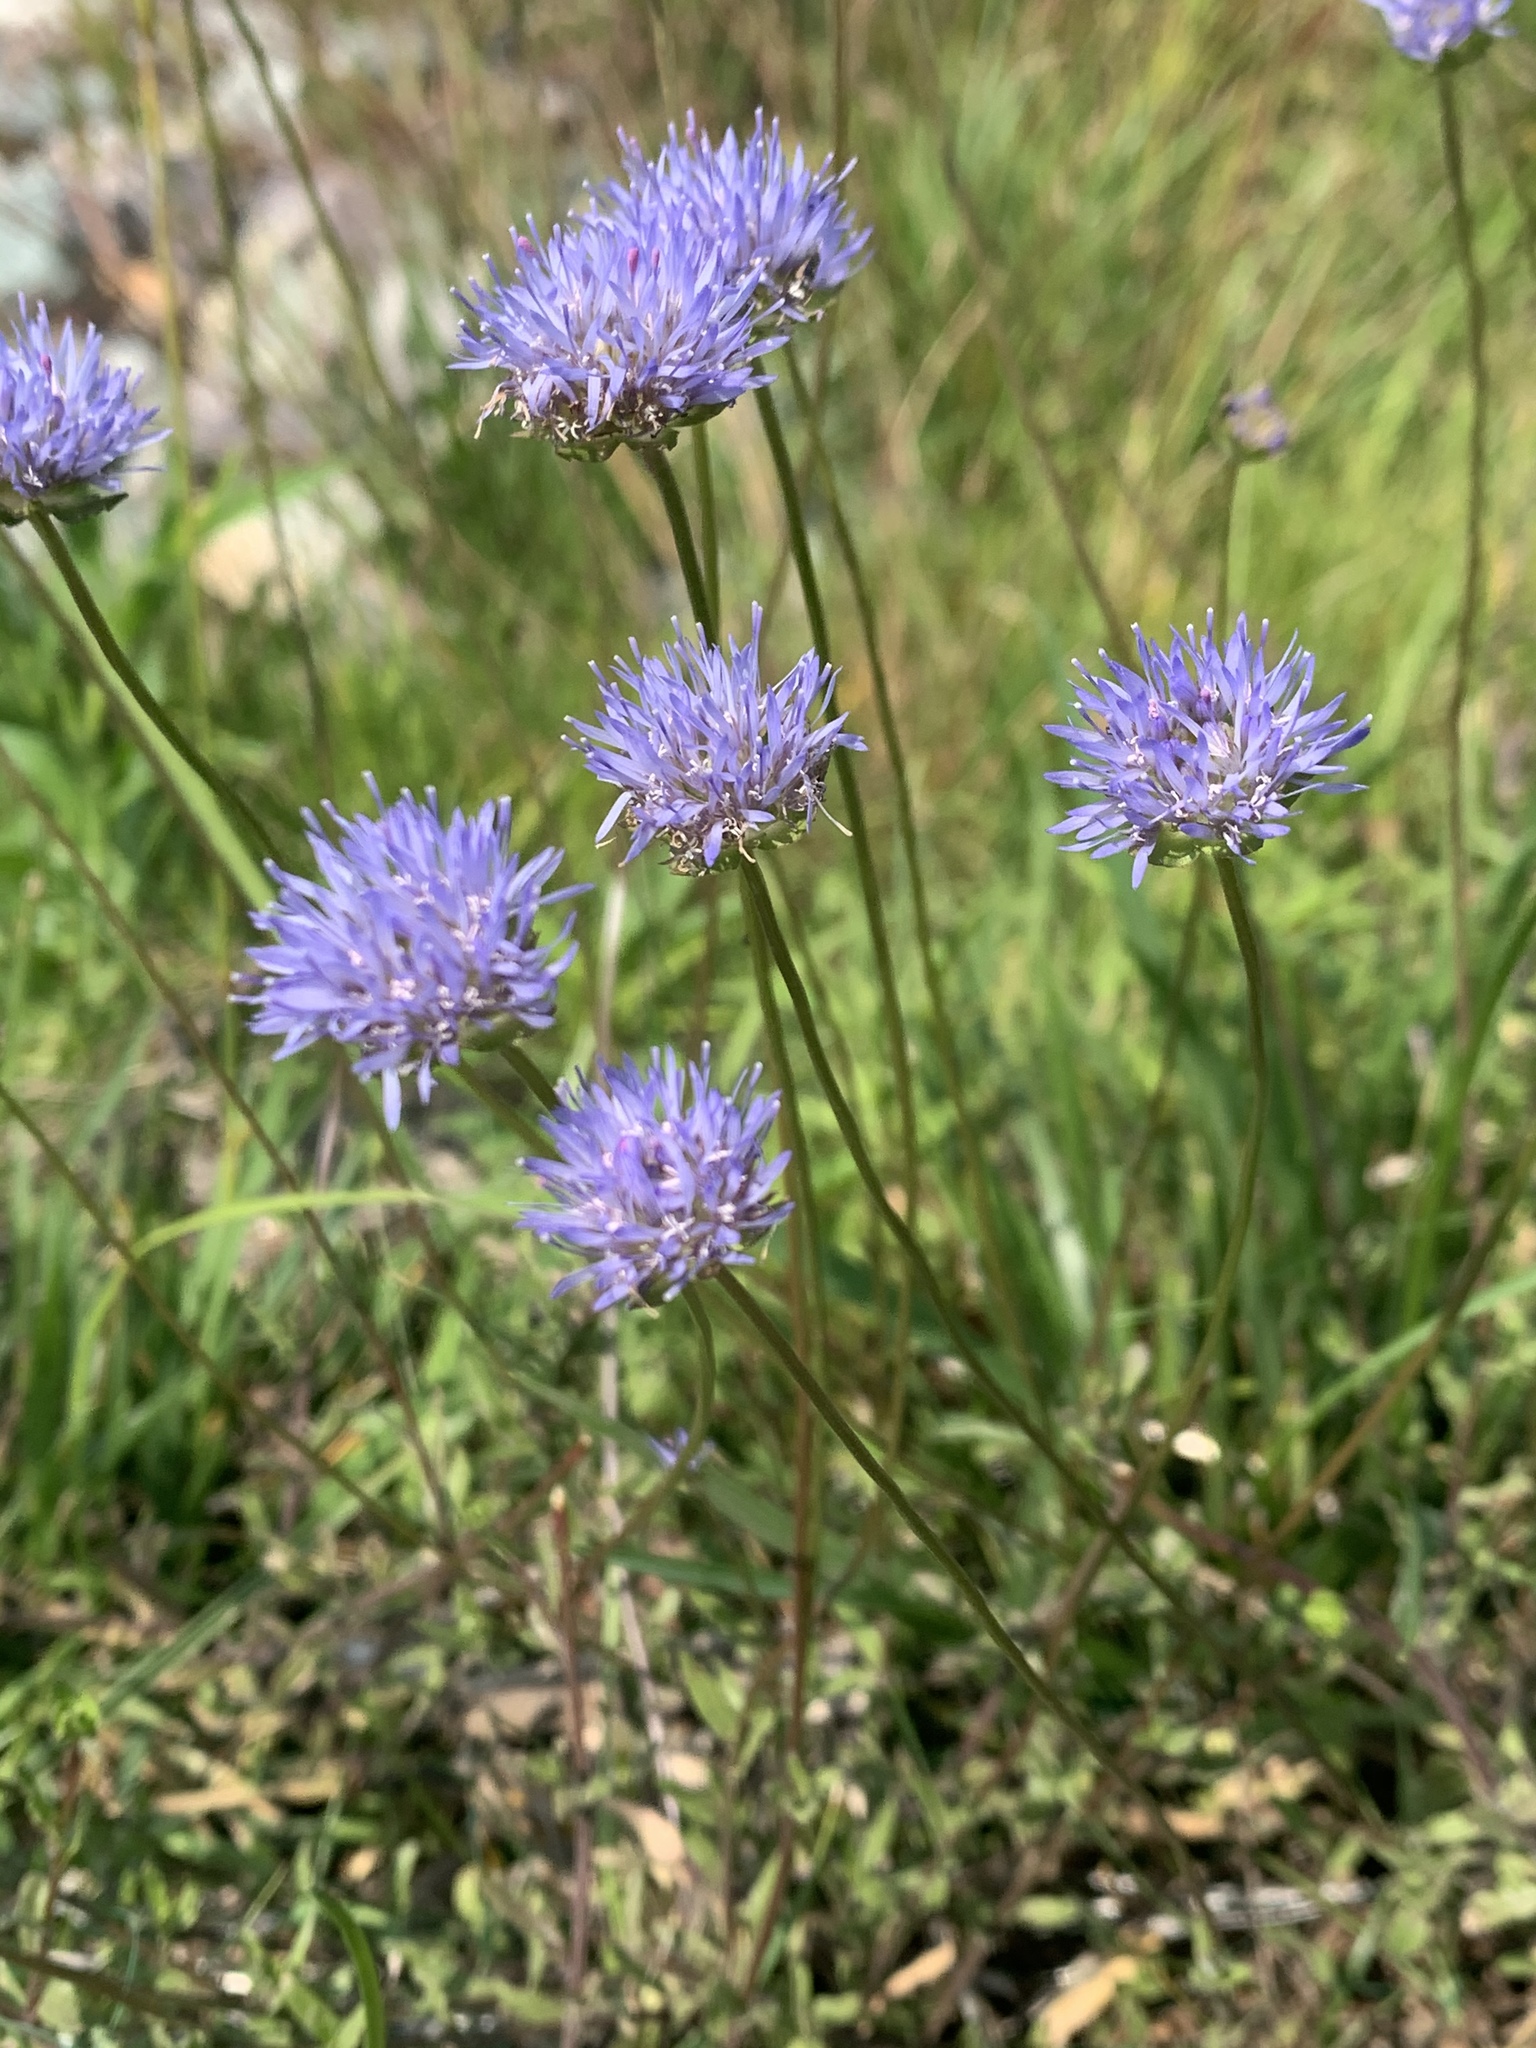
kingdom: Plantae
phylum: Tracheophyta
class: Magnoliopsida
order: Asterales
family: Campanulaceae
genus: Jasione
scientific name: Jasione montana
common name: Sheep's-bit
